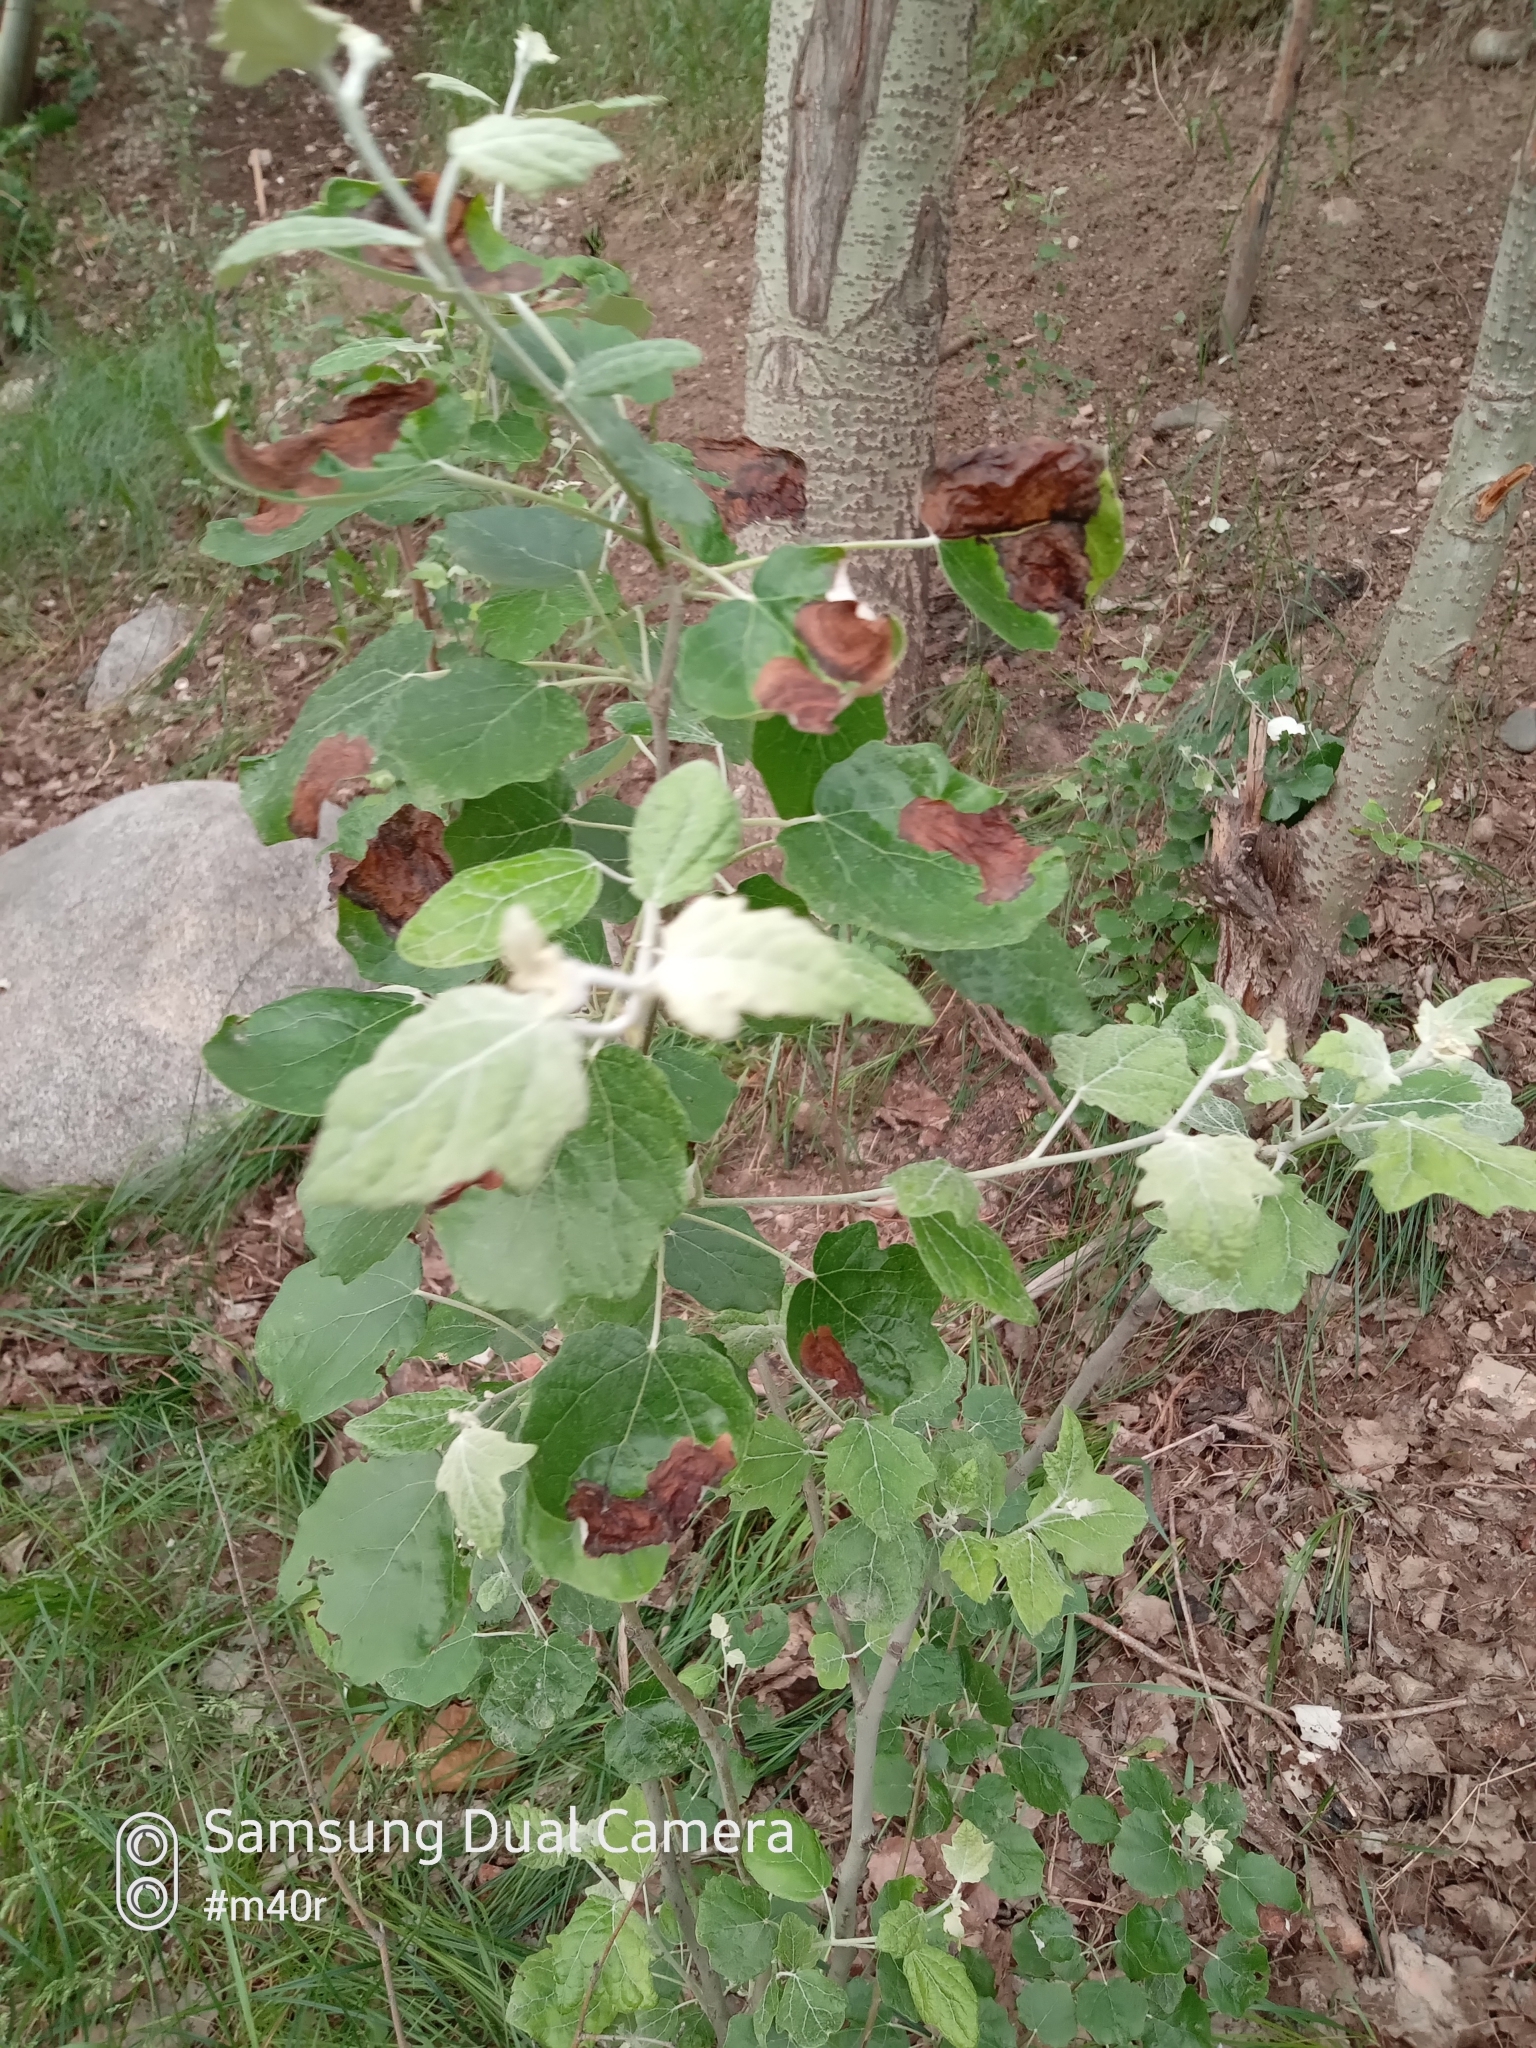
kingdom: Plantae
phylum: Tracheophyta
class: Magnoliopsida
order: Malpighiales
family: Salicaceae
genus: Populus
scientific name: Populus alba
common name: White poplar
